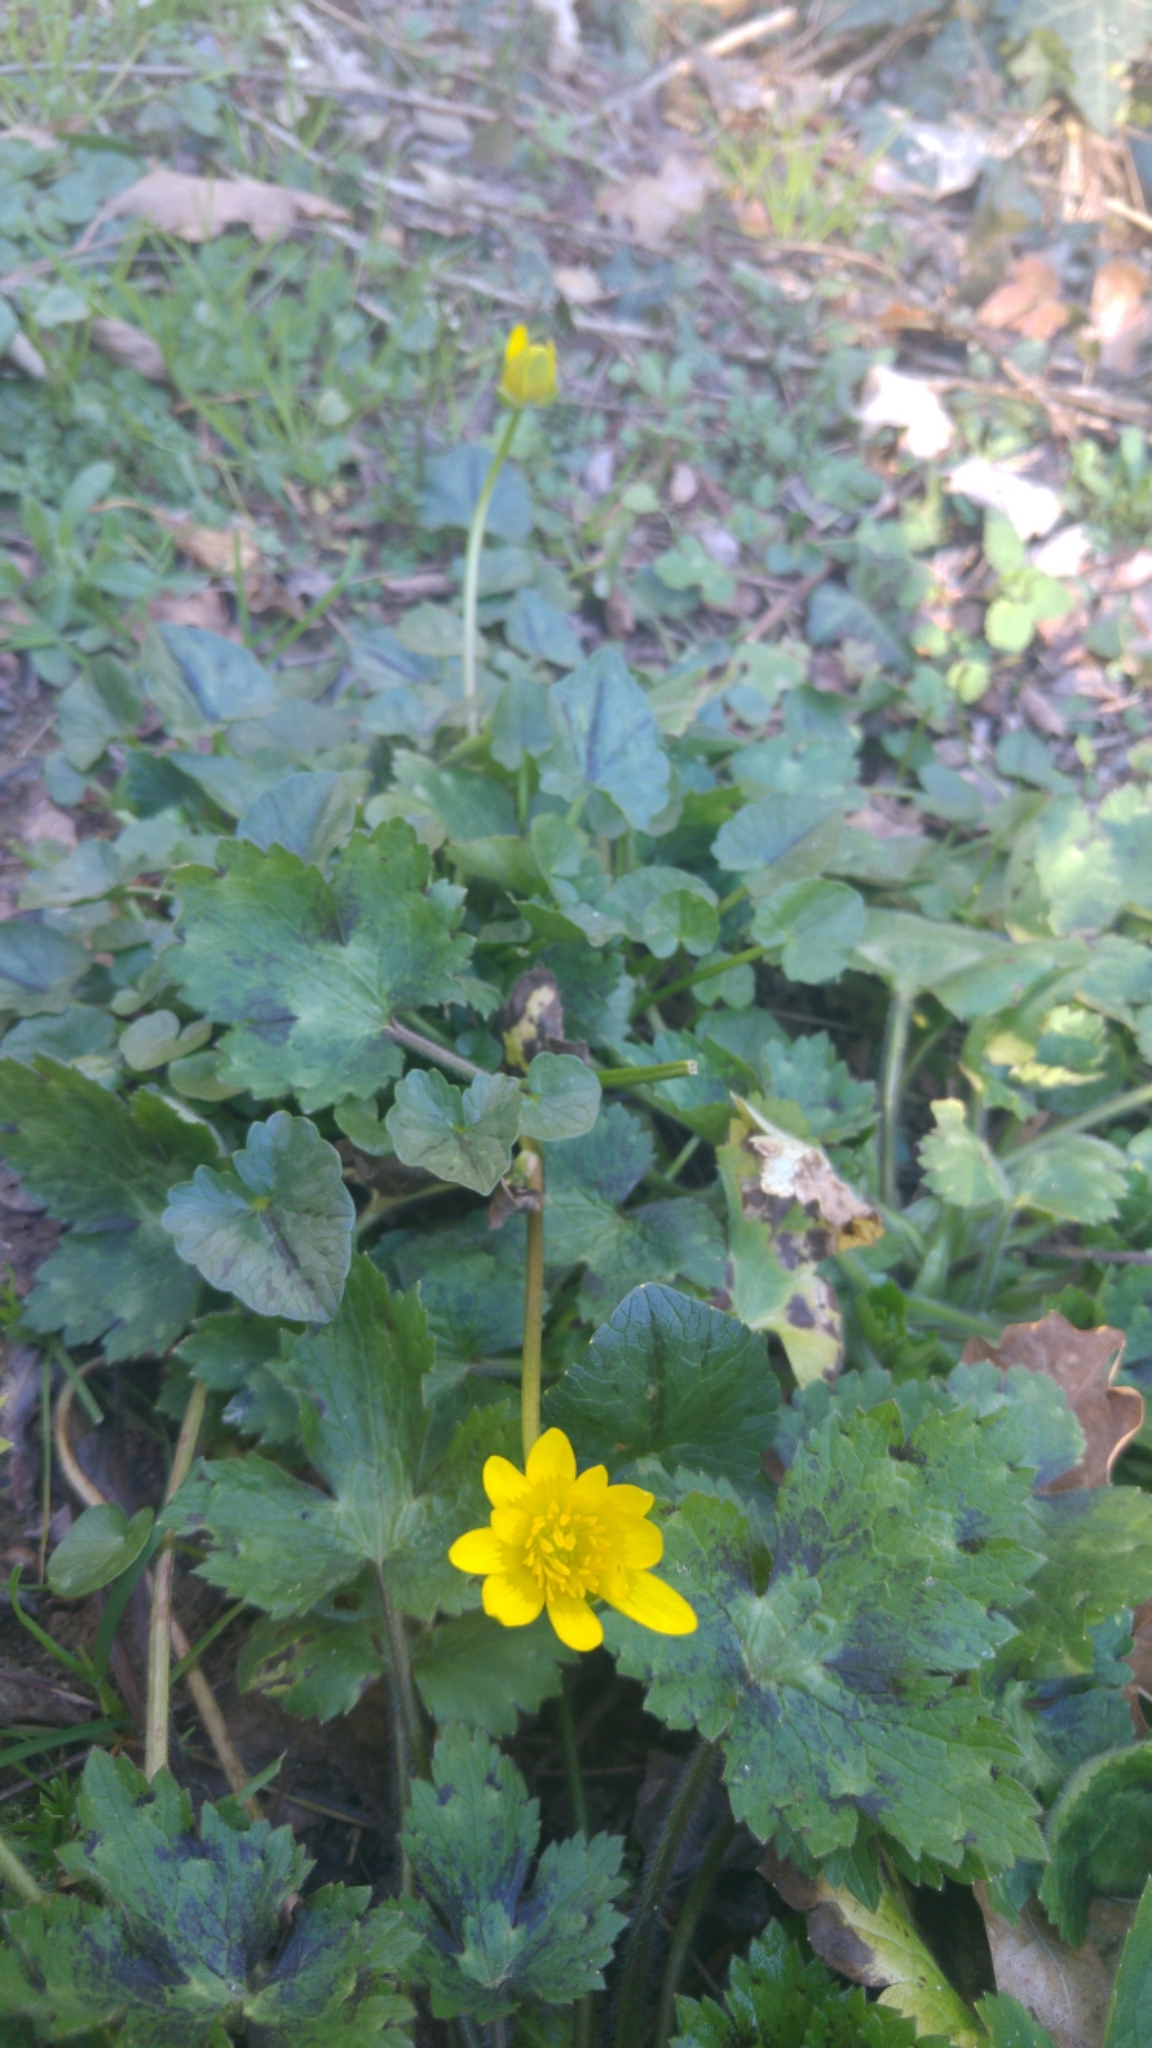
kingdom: Plantae
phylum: Tracheophyta
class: Magnoliopsida
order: Ranunculales
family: Ranunculaceae
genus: Ficaria
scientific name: Ficaria verna
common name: Lesser celandine
